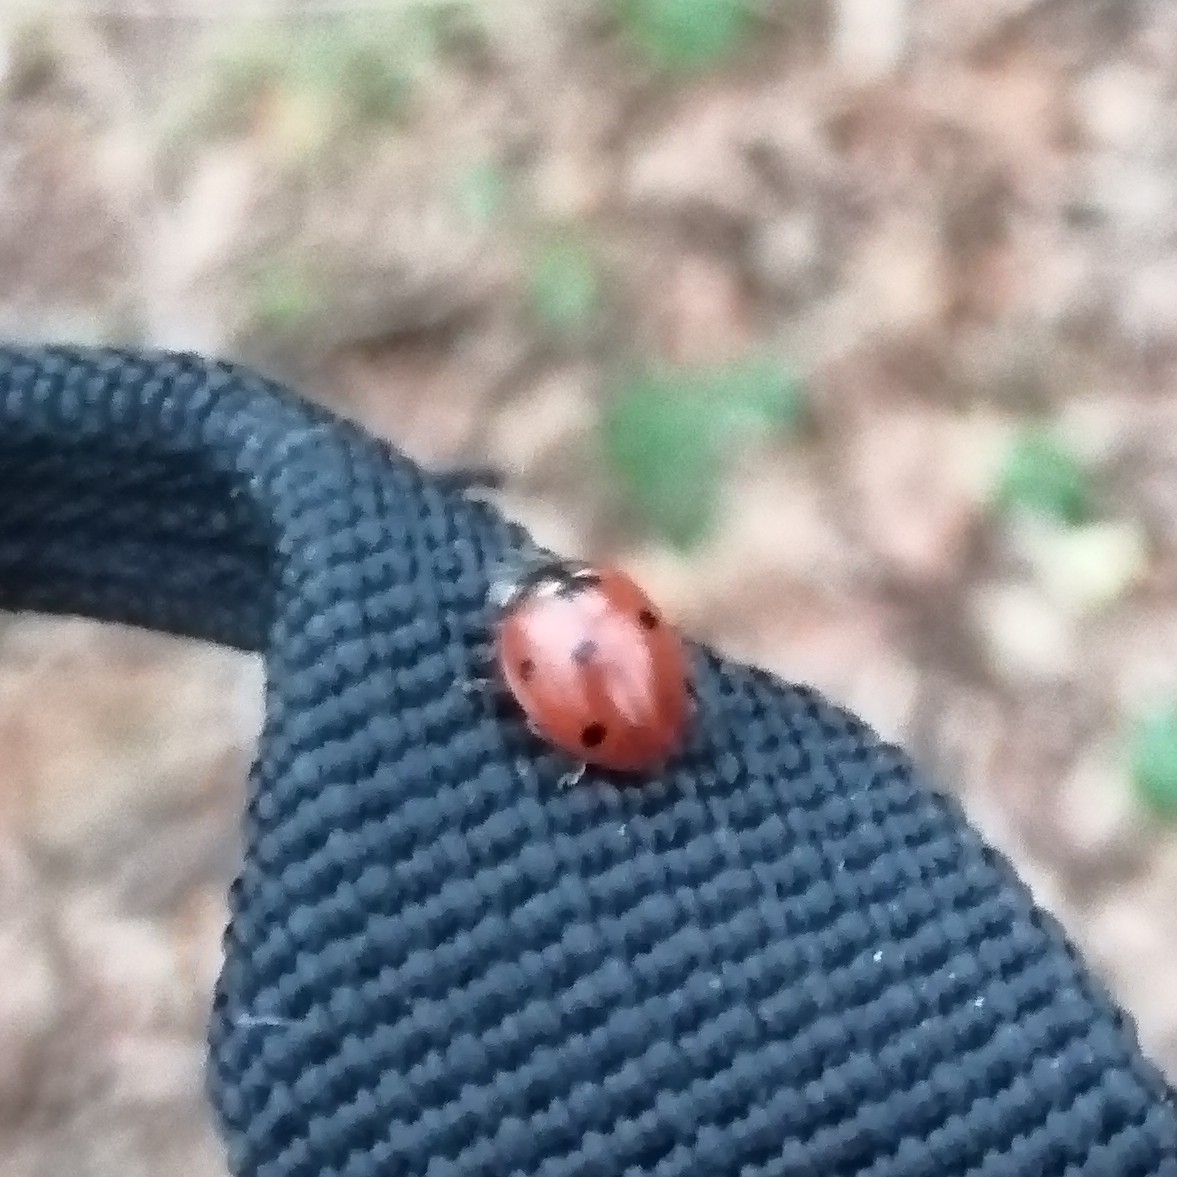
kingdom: Animalia
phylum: Arthropoda
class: Insecta
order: Coleoptera
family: Coccinellidae
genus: Coccinella
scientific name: Coccinella septempunctata
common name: Sevenspotted lady beetle
